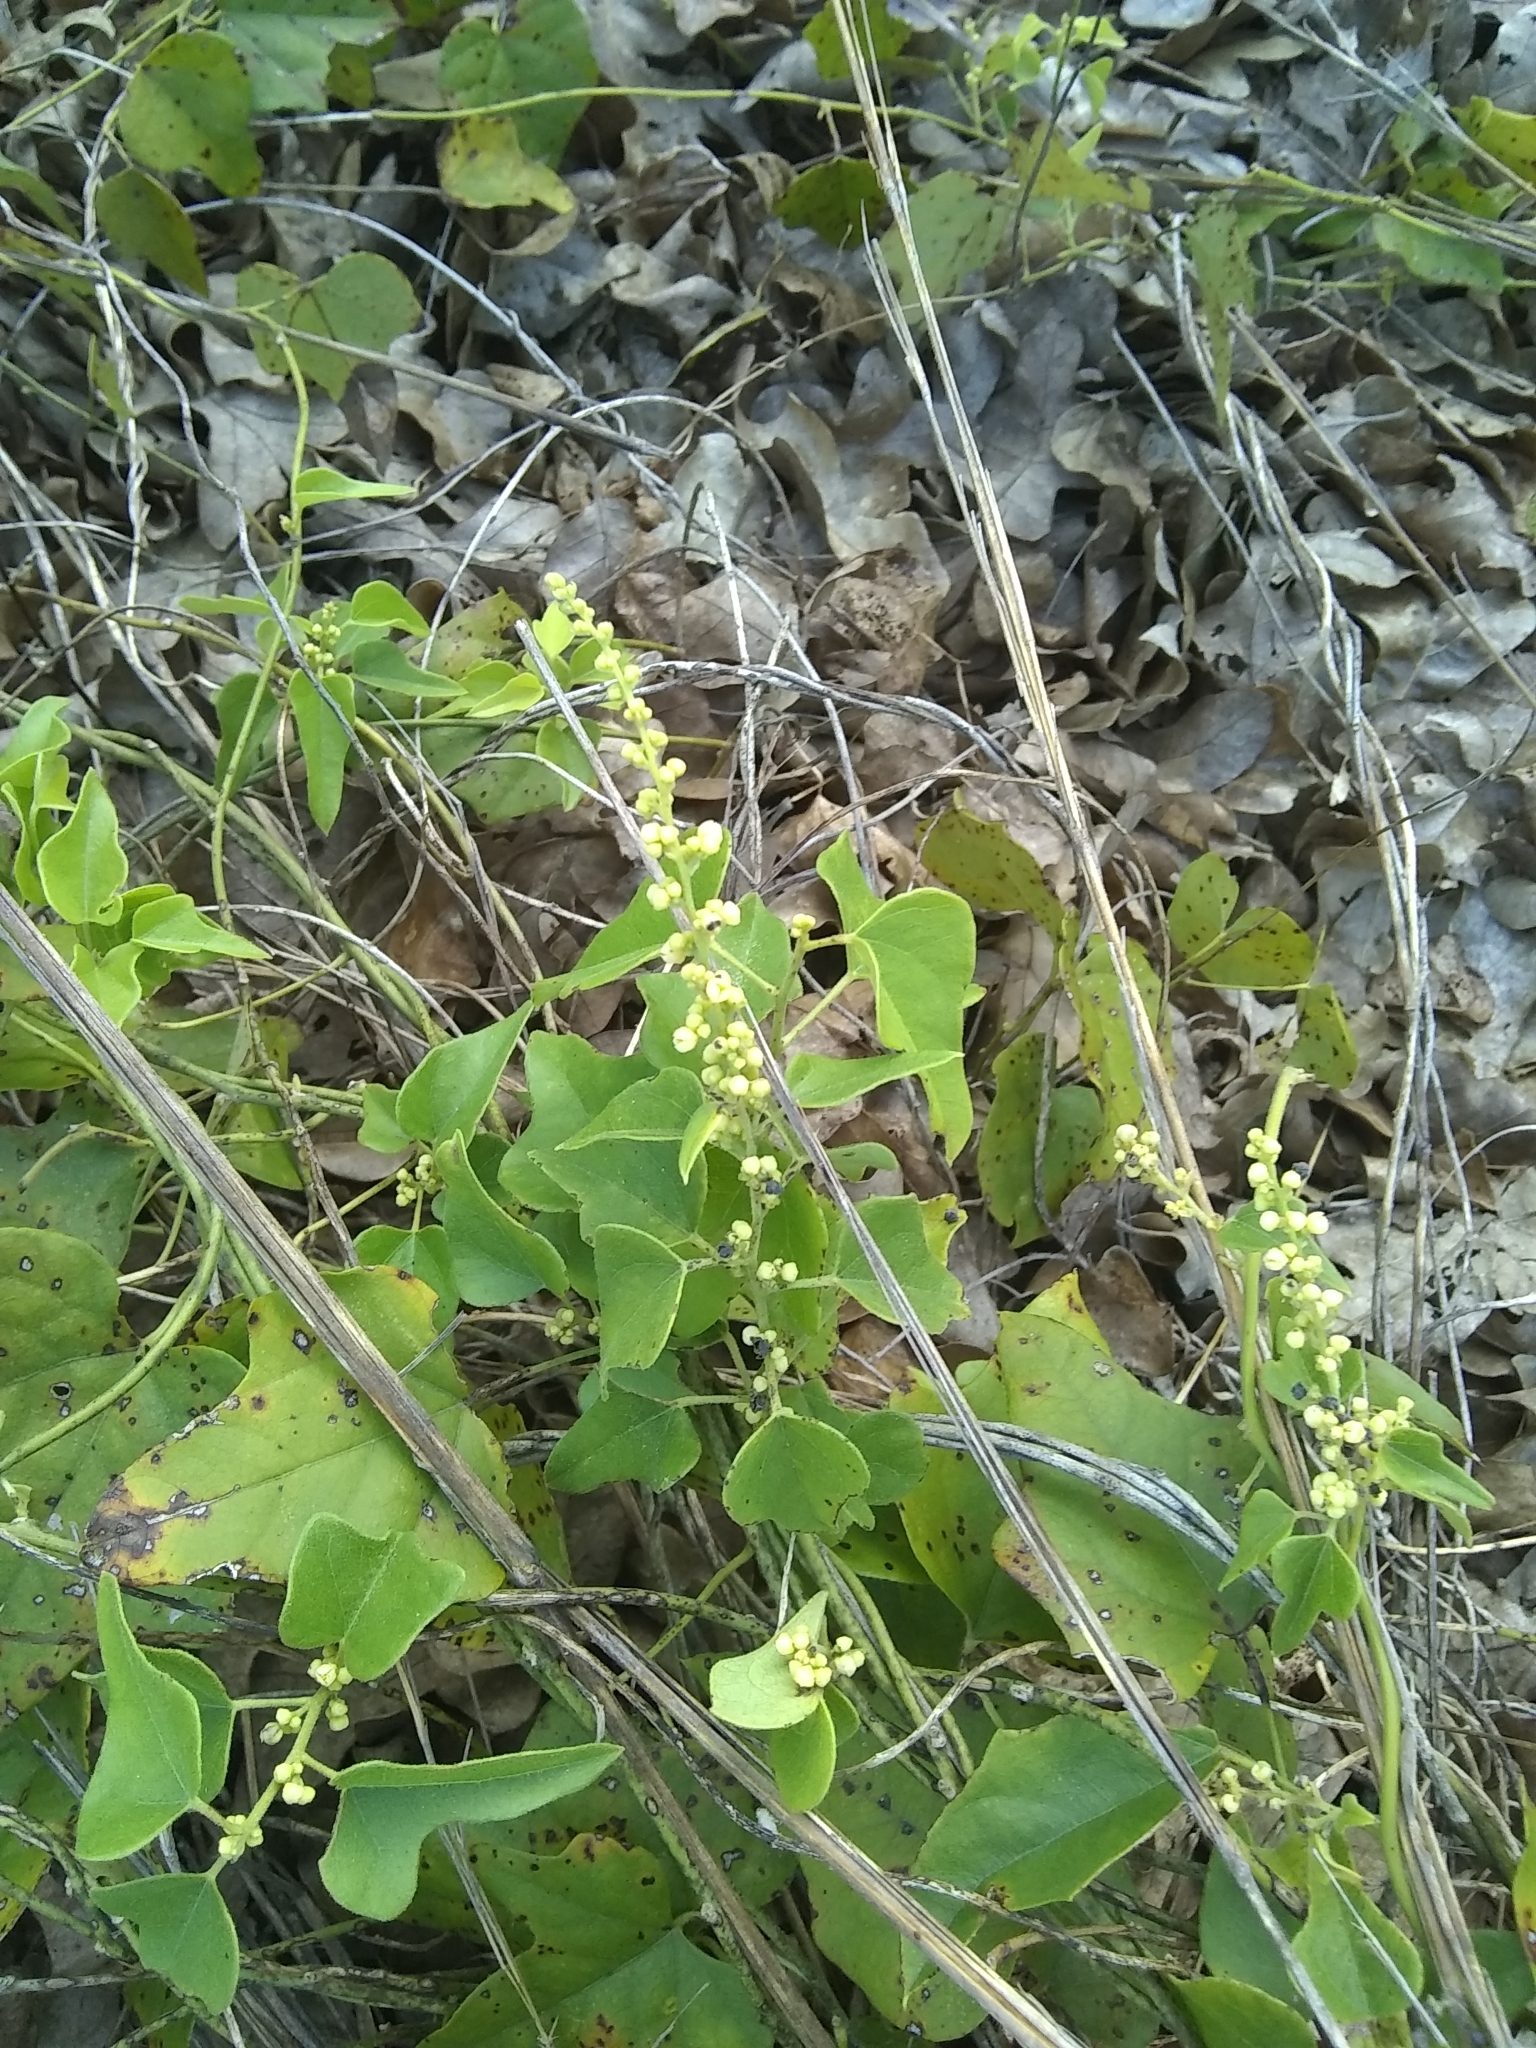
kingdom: Plantae
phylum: Tracheophyta
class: Magnoliopsida
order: Ranunculales
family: Menispermaceae
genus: Cocculus
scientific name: Cocculus carolinus
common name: Carolina moonseed
